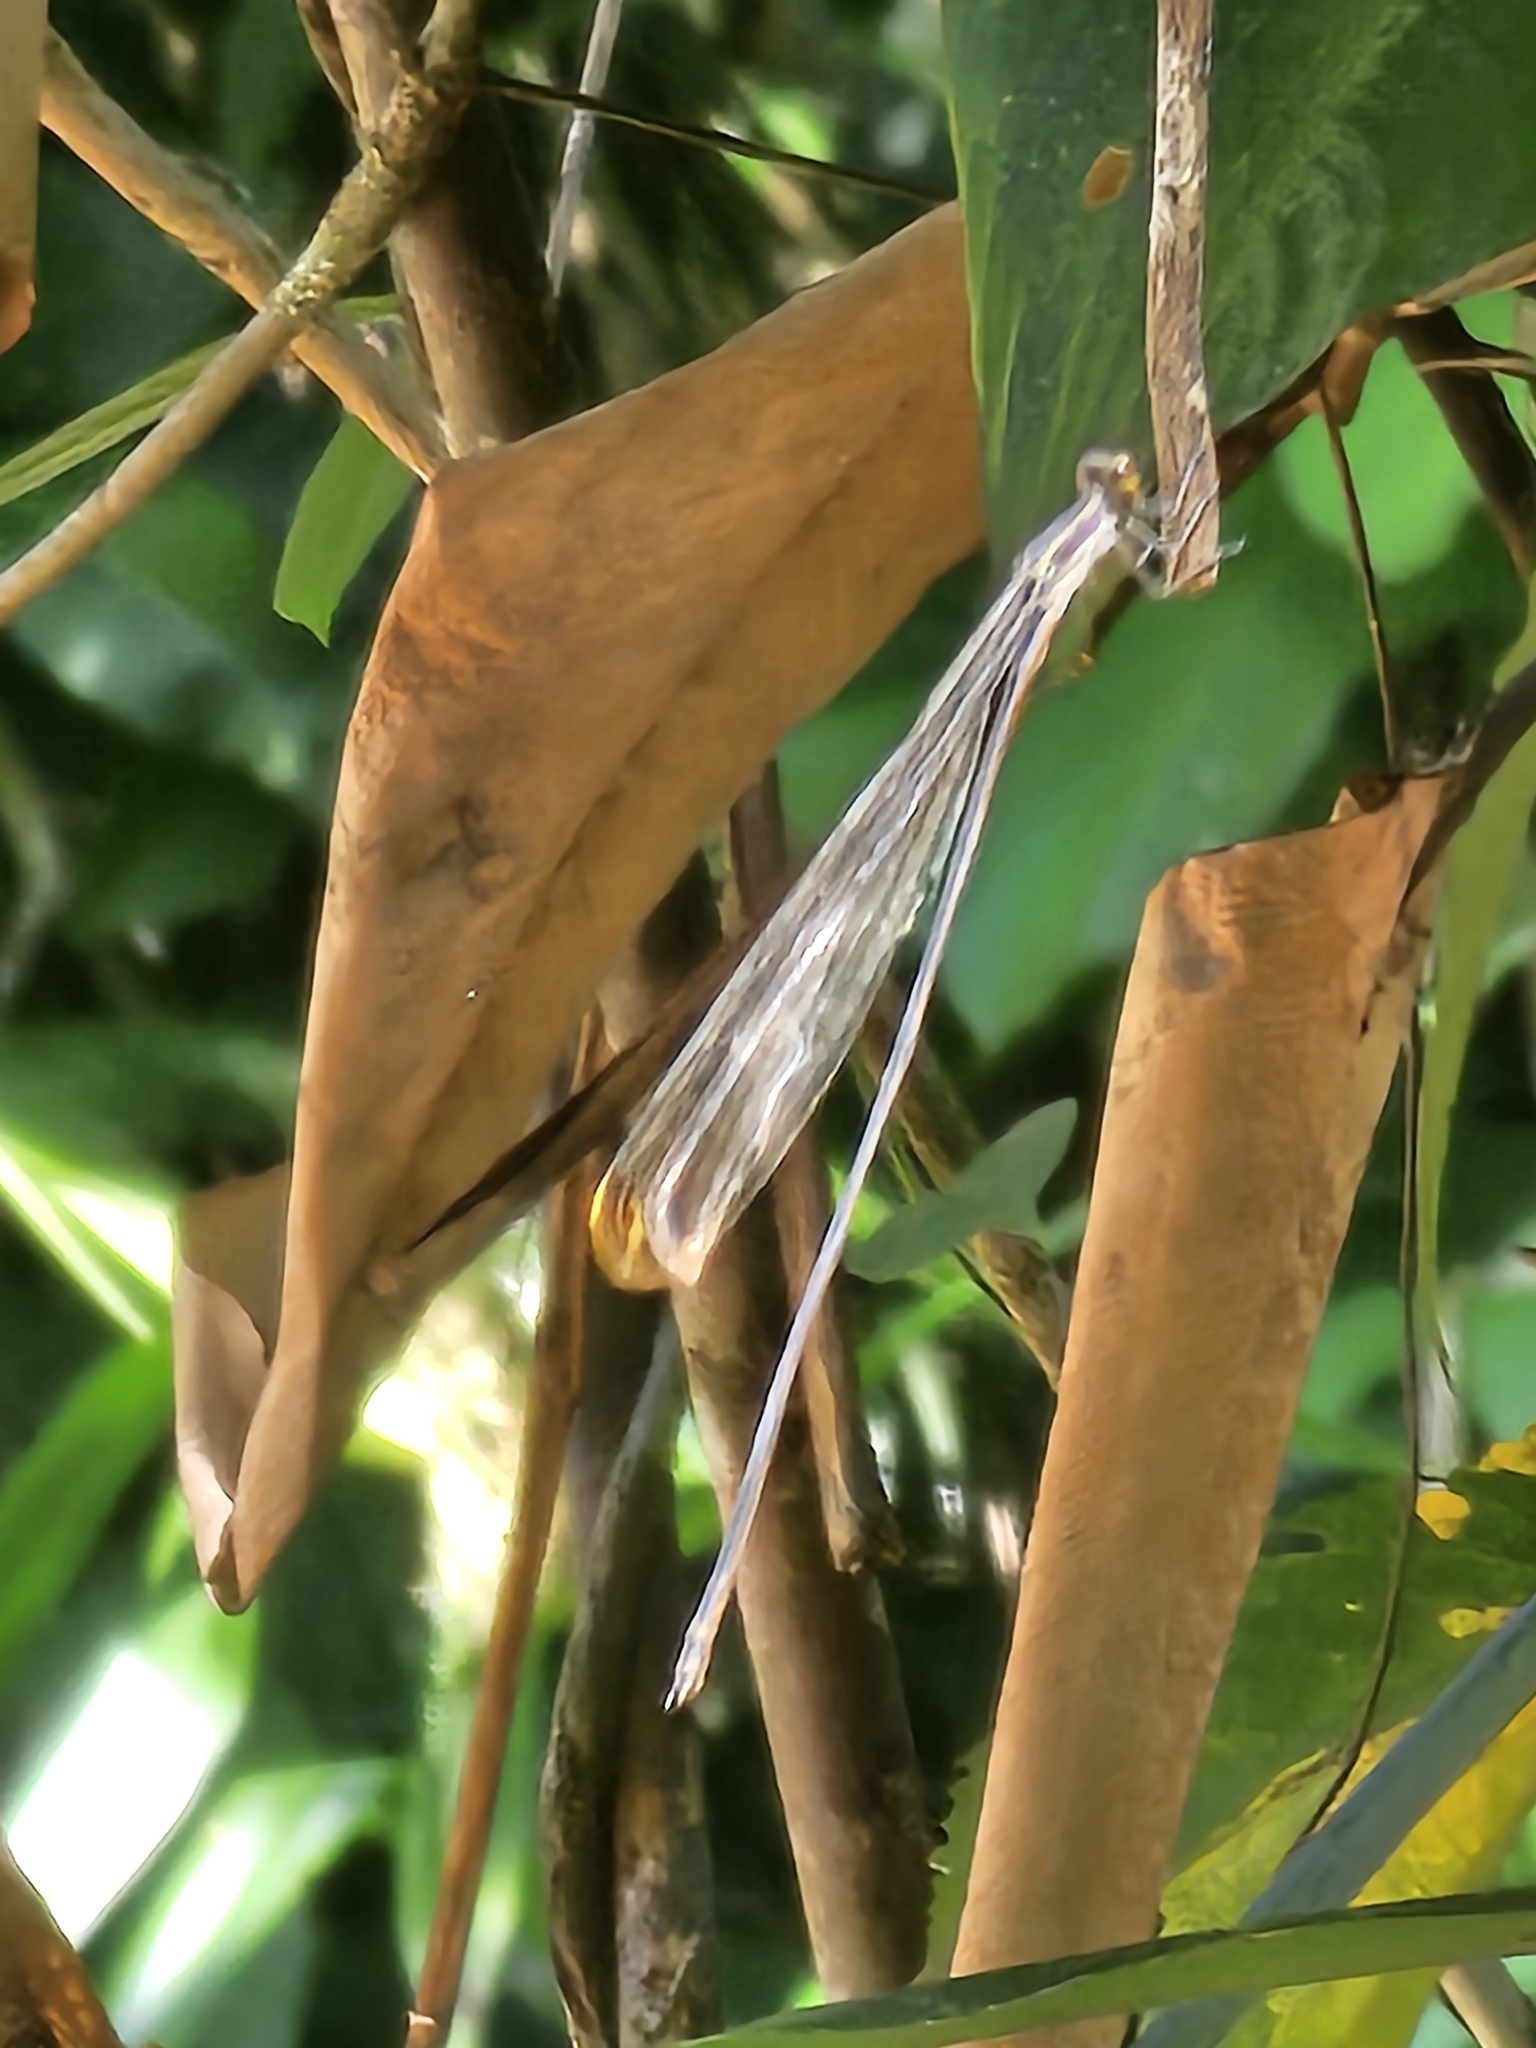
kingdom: Animalia
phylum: Arthropoda
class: Insecta
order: Odonata
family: Coenagrionidae
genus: Mecistogaster
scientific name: Mecistogaster ornata
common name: Ornate helicopter
